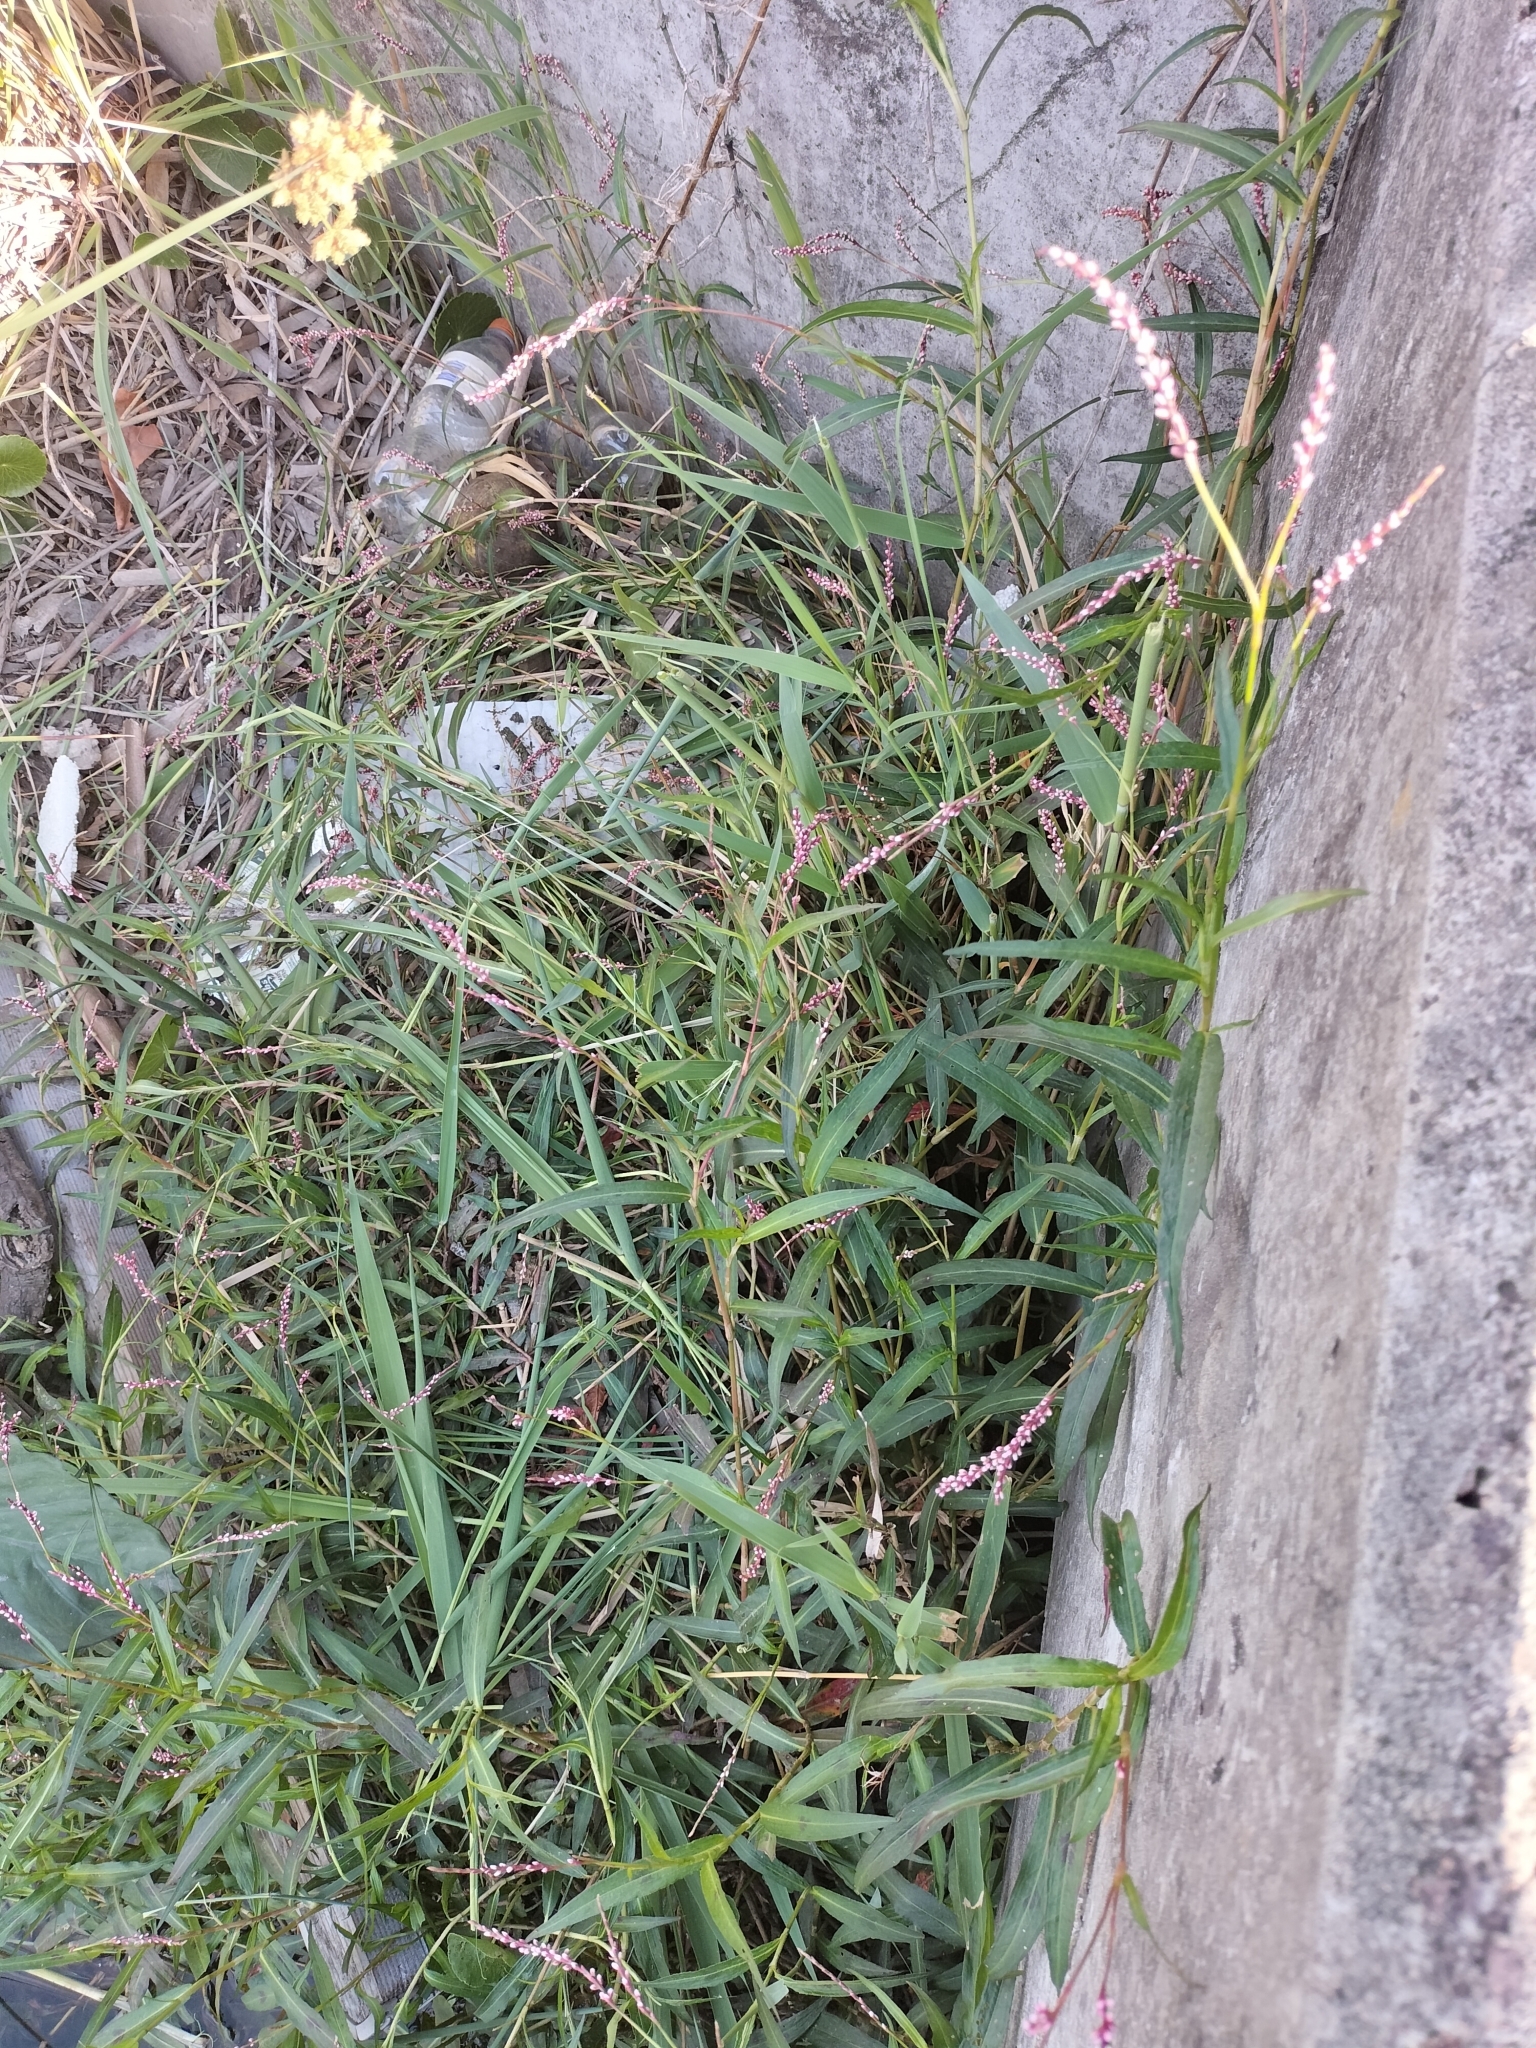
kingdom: Plantae
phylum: Tracheophyta
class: Magnoliopsida
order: Caryophyllales
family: Polygonaceae
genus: Persicaria
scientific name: Persicaria decipiens
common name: Willow-weed
